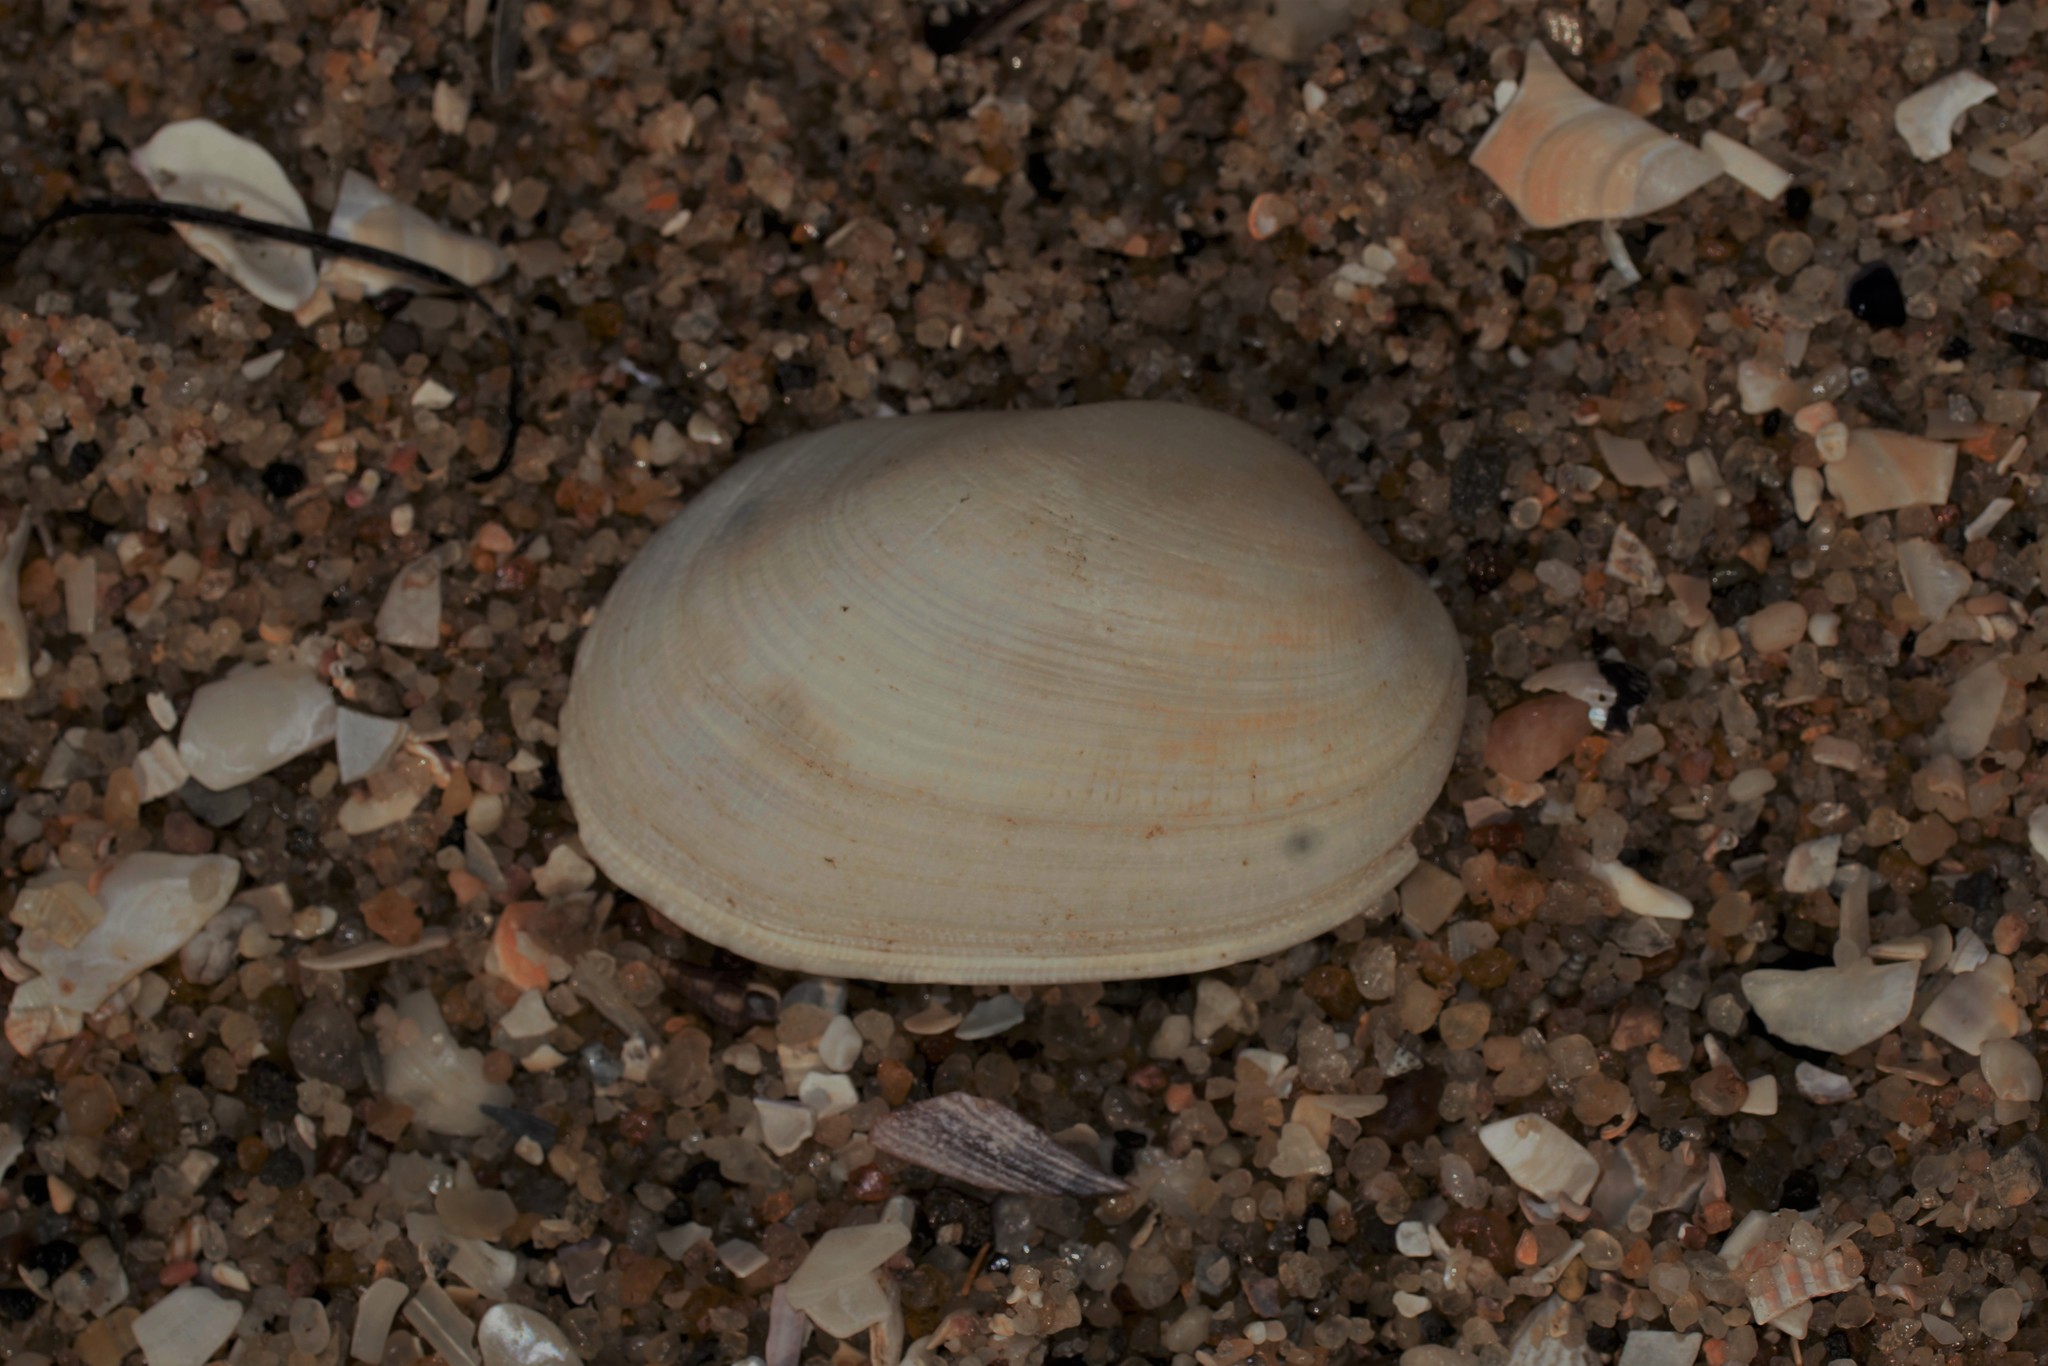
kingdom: Animalia
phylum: Mollusca
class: Bivalvia
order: Venerida
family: Veneridae
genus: Venerupis
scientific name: Venerupis galactites
